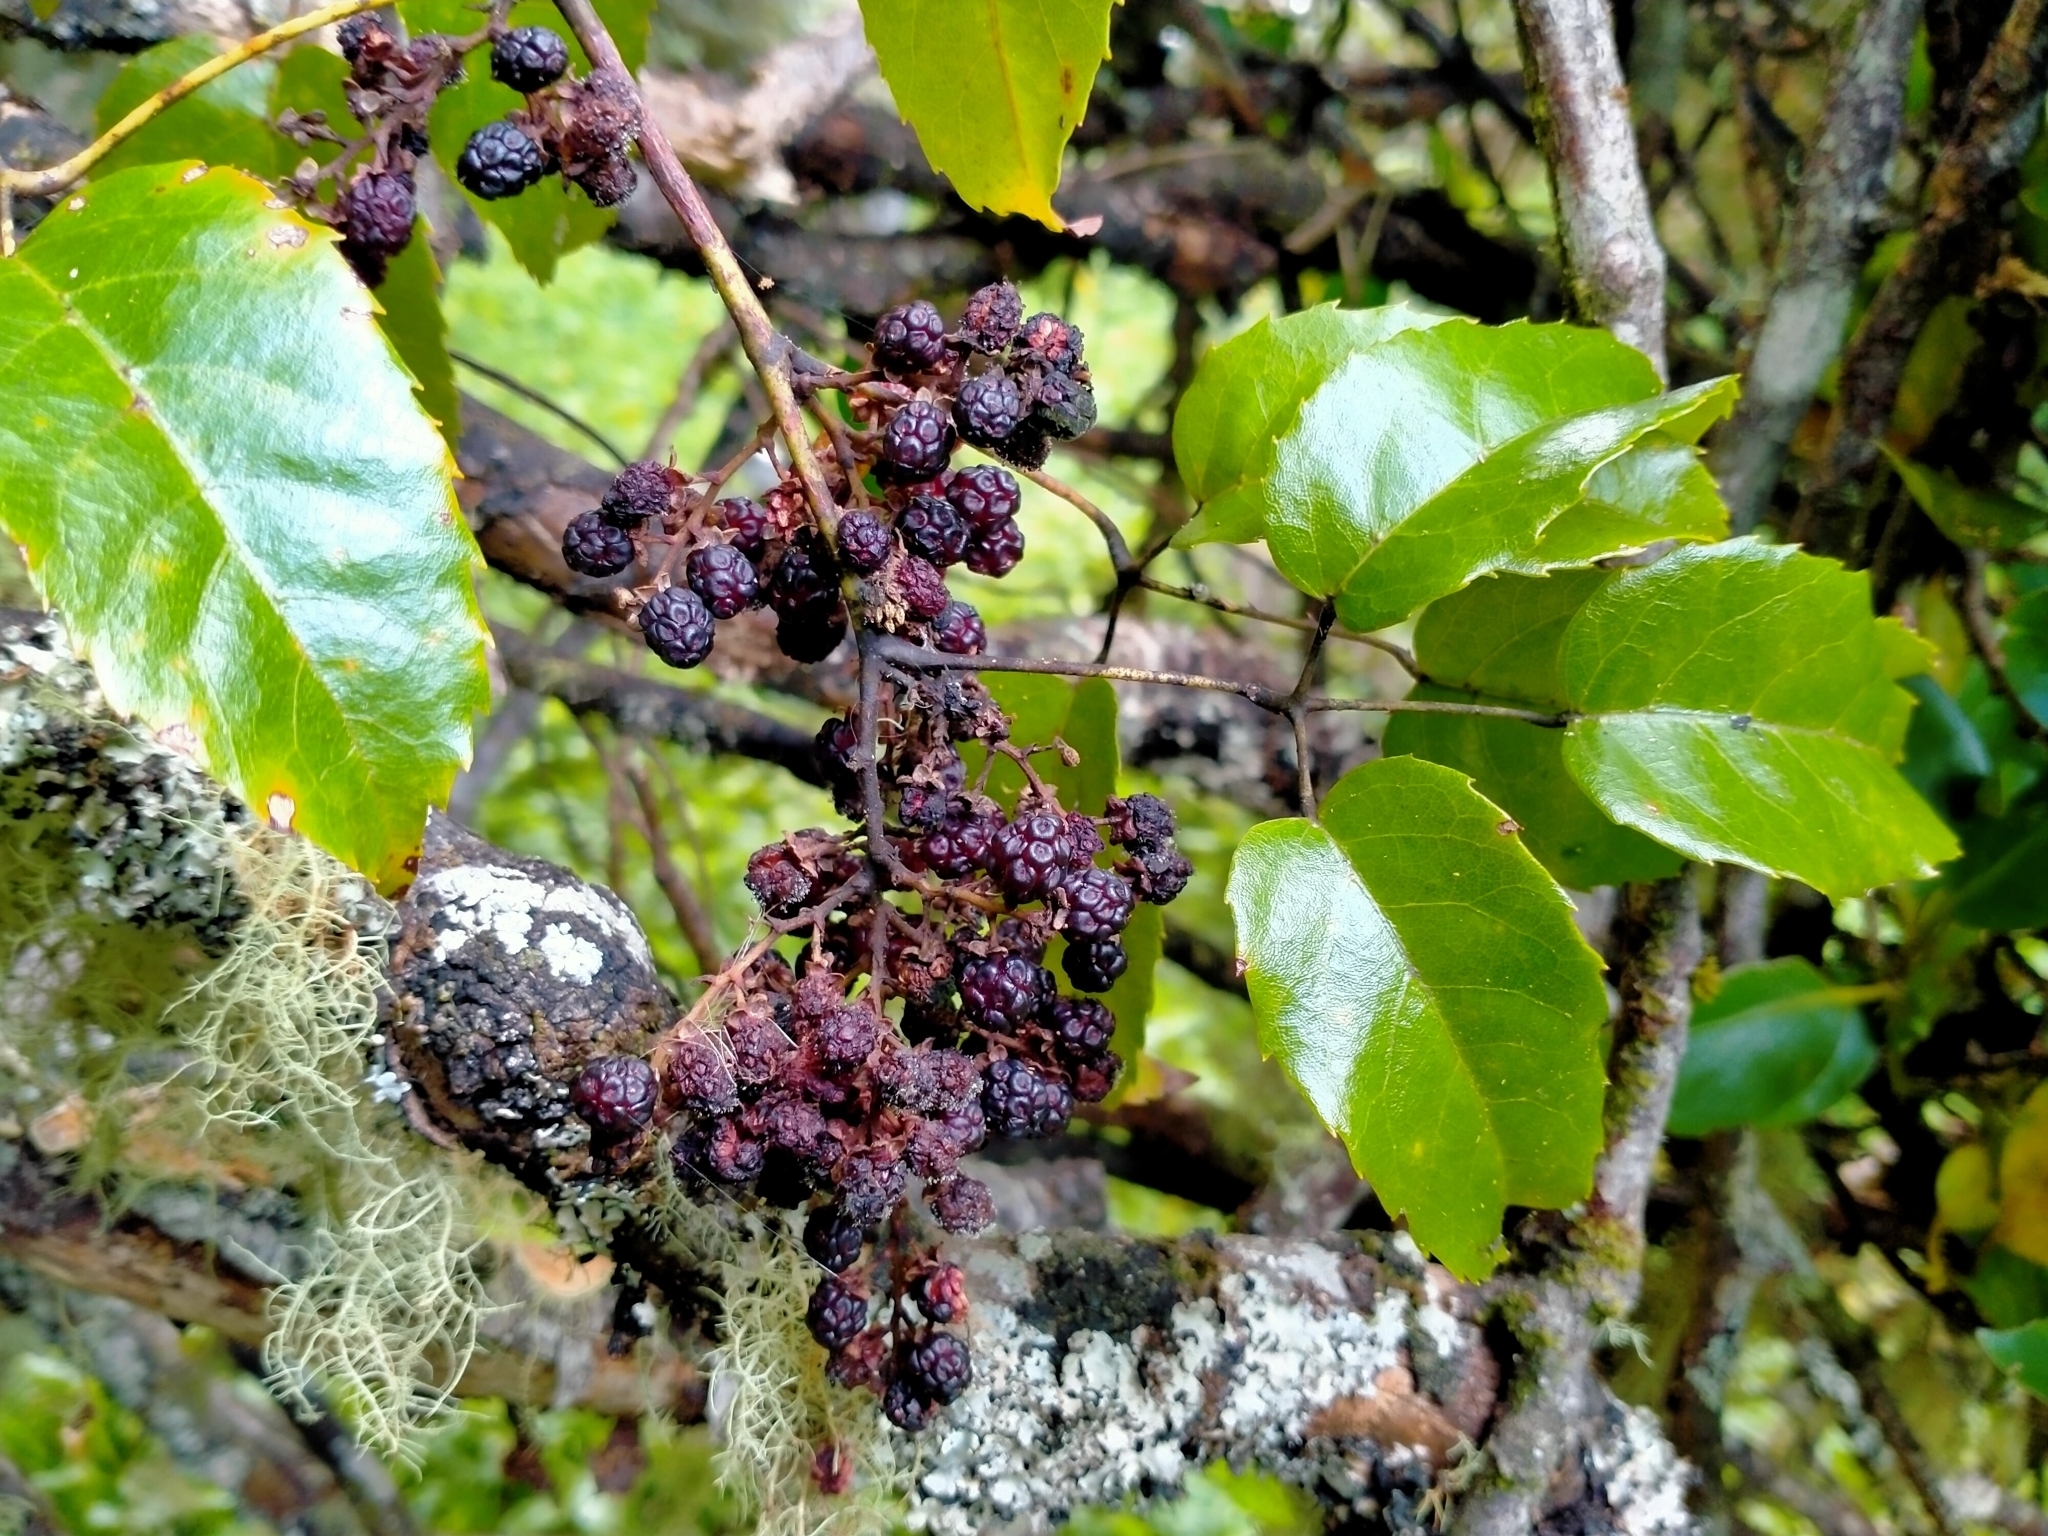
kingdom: Plantae
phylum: Tracheophyta
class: Magnoliopsida
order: Rosales
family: Rosaceae
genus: Rubus
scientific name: Rubus cissoides
